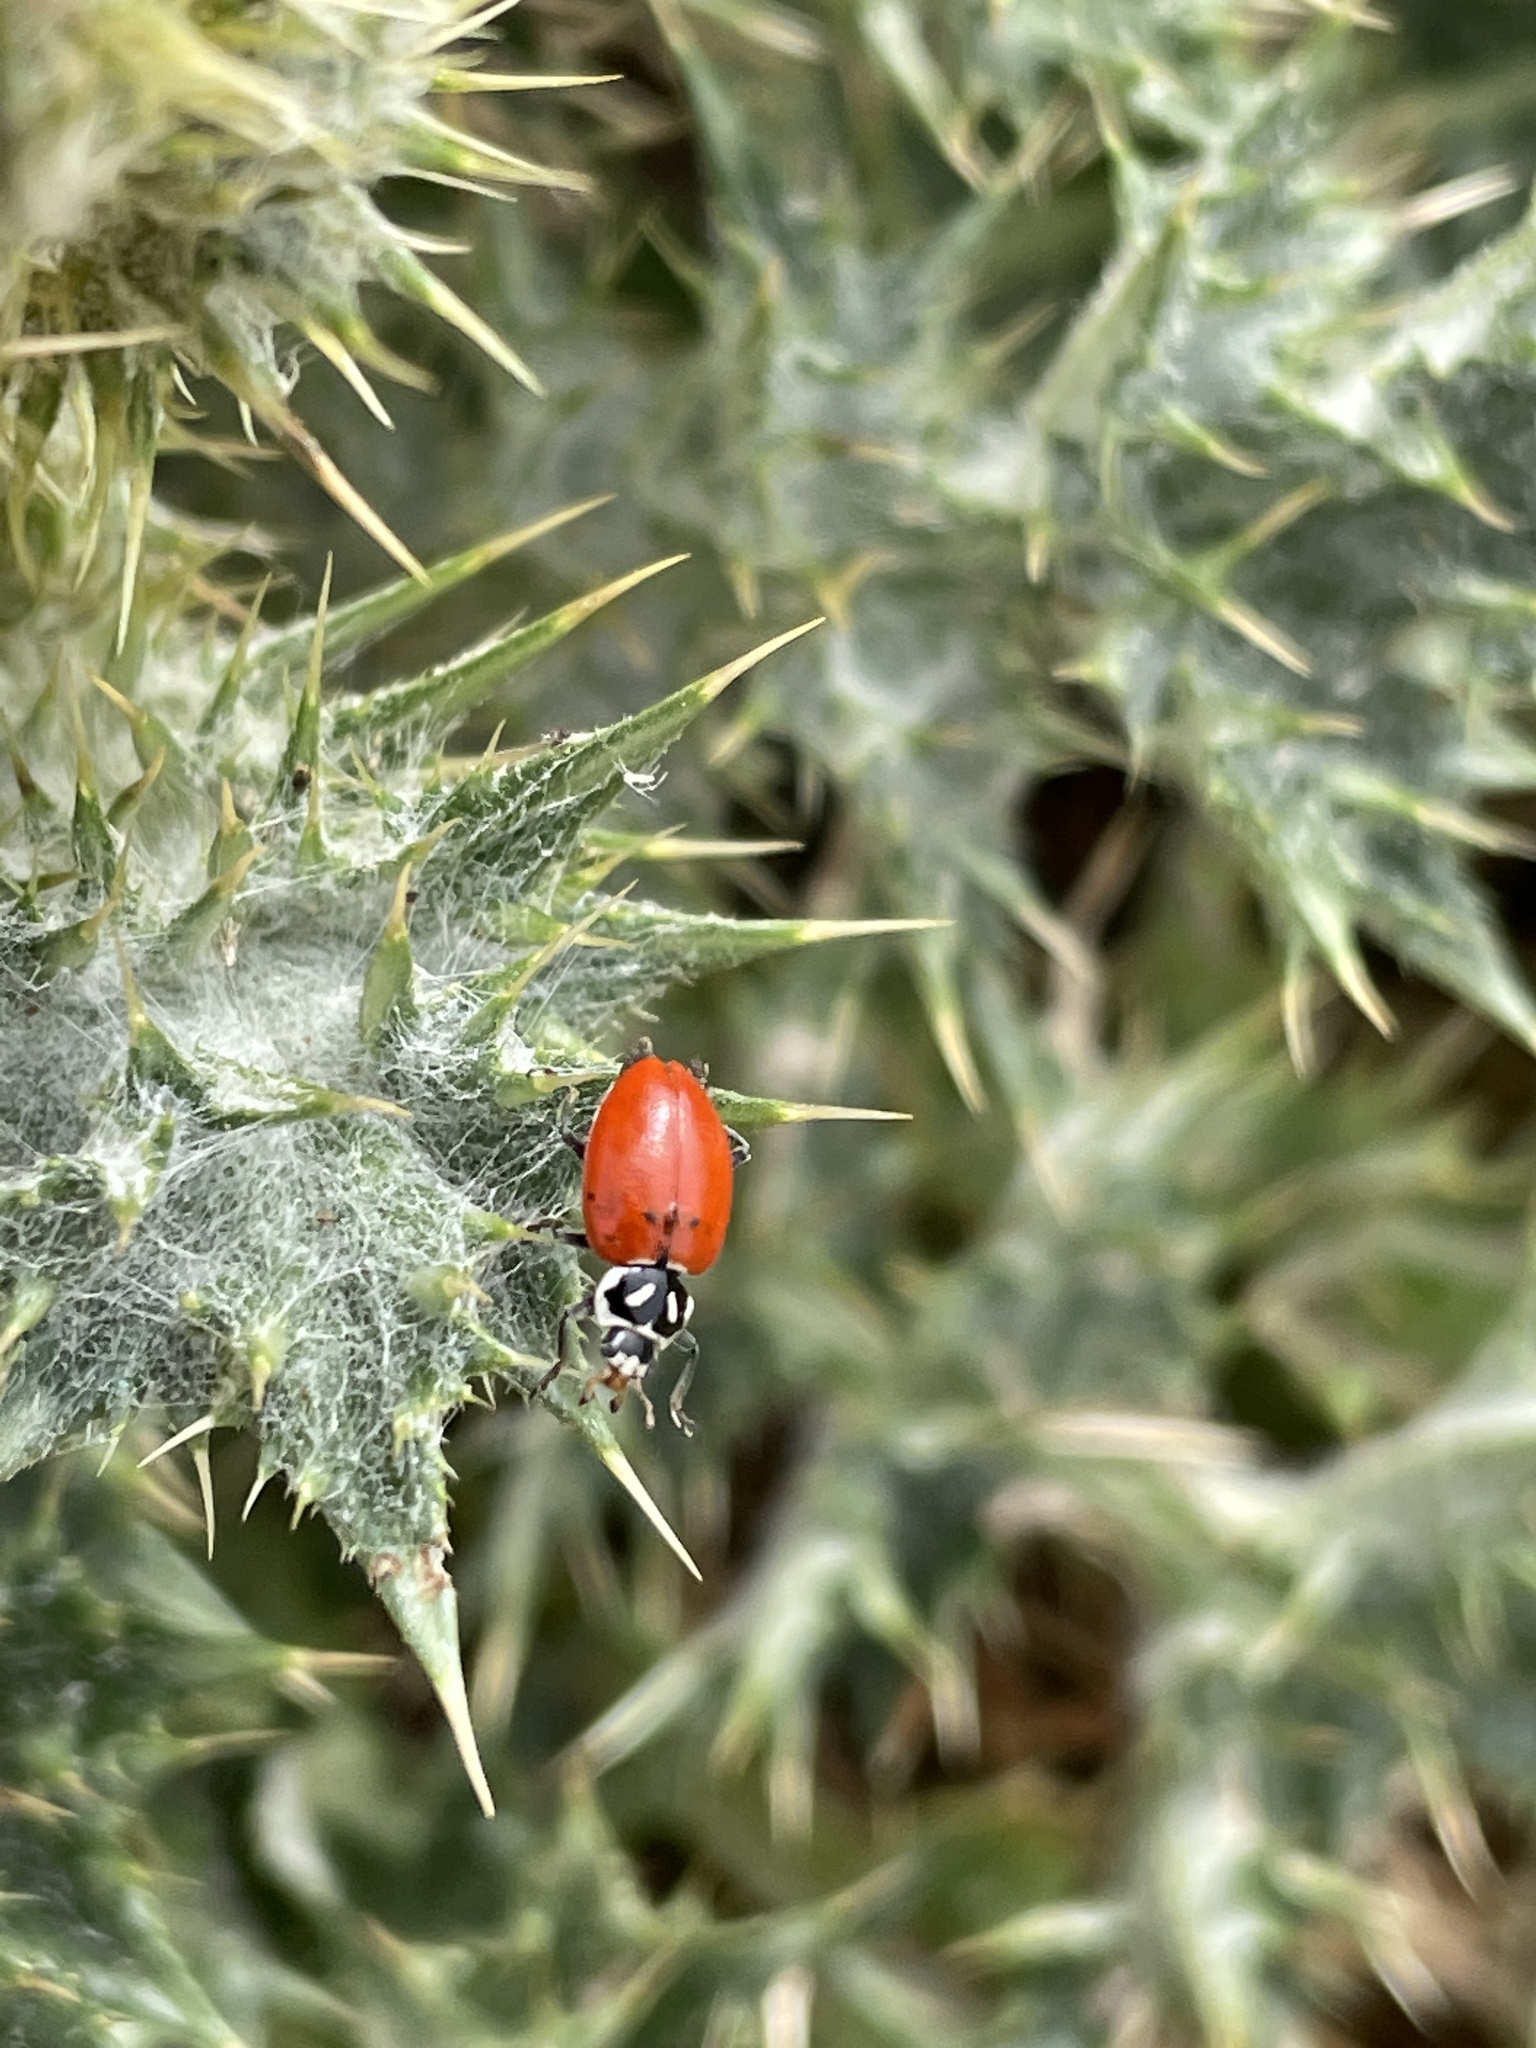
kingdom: Animalia
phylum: Arthropoda
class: Insecta
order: Coleoptera
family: Coccinellidae
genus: Hippodamia
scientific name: Hippodamia convergens
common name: Convergent lady beetle
